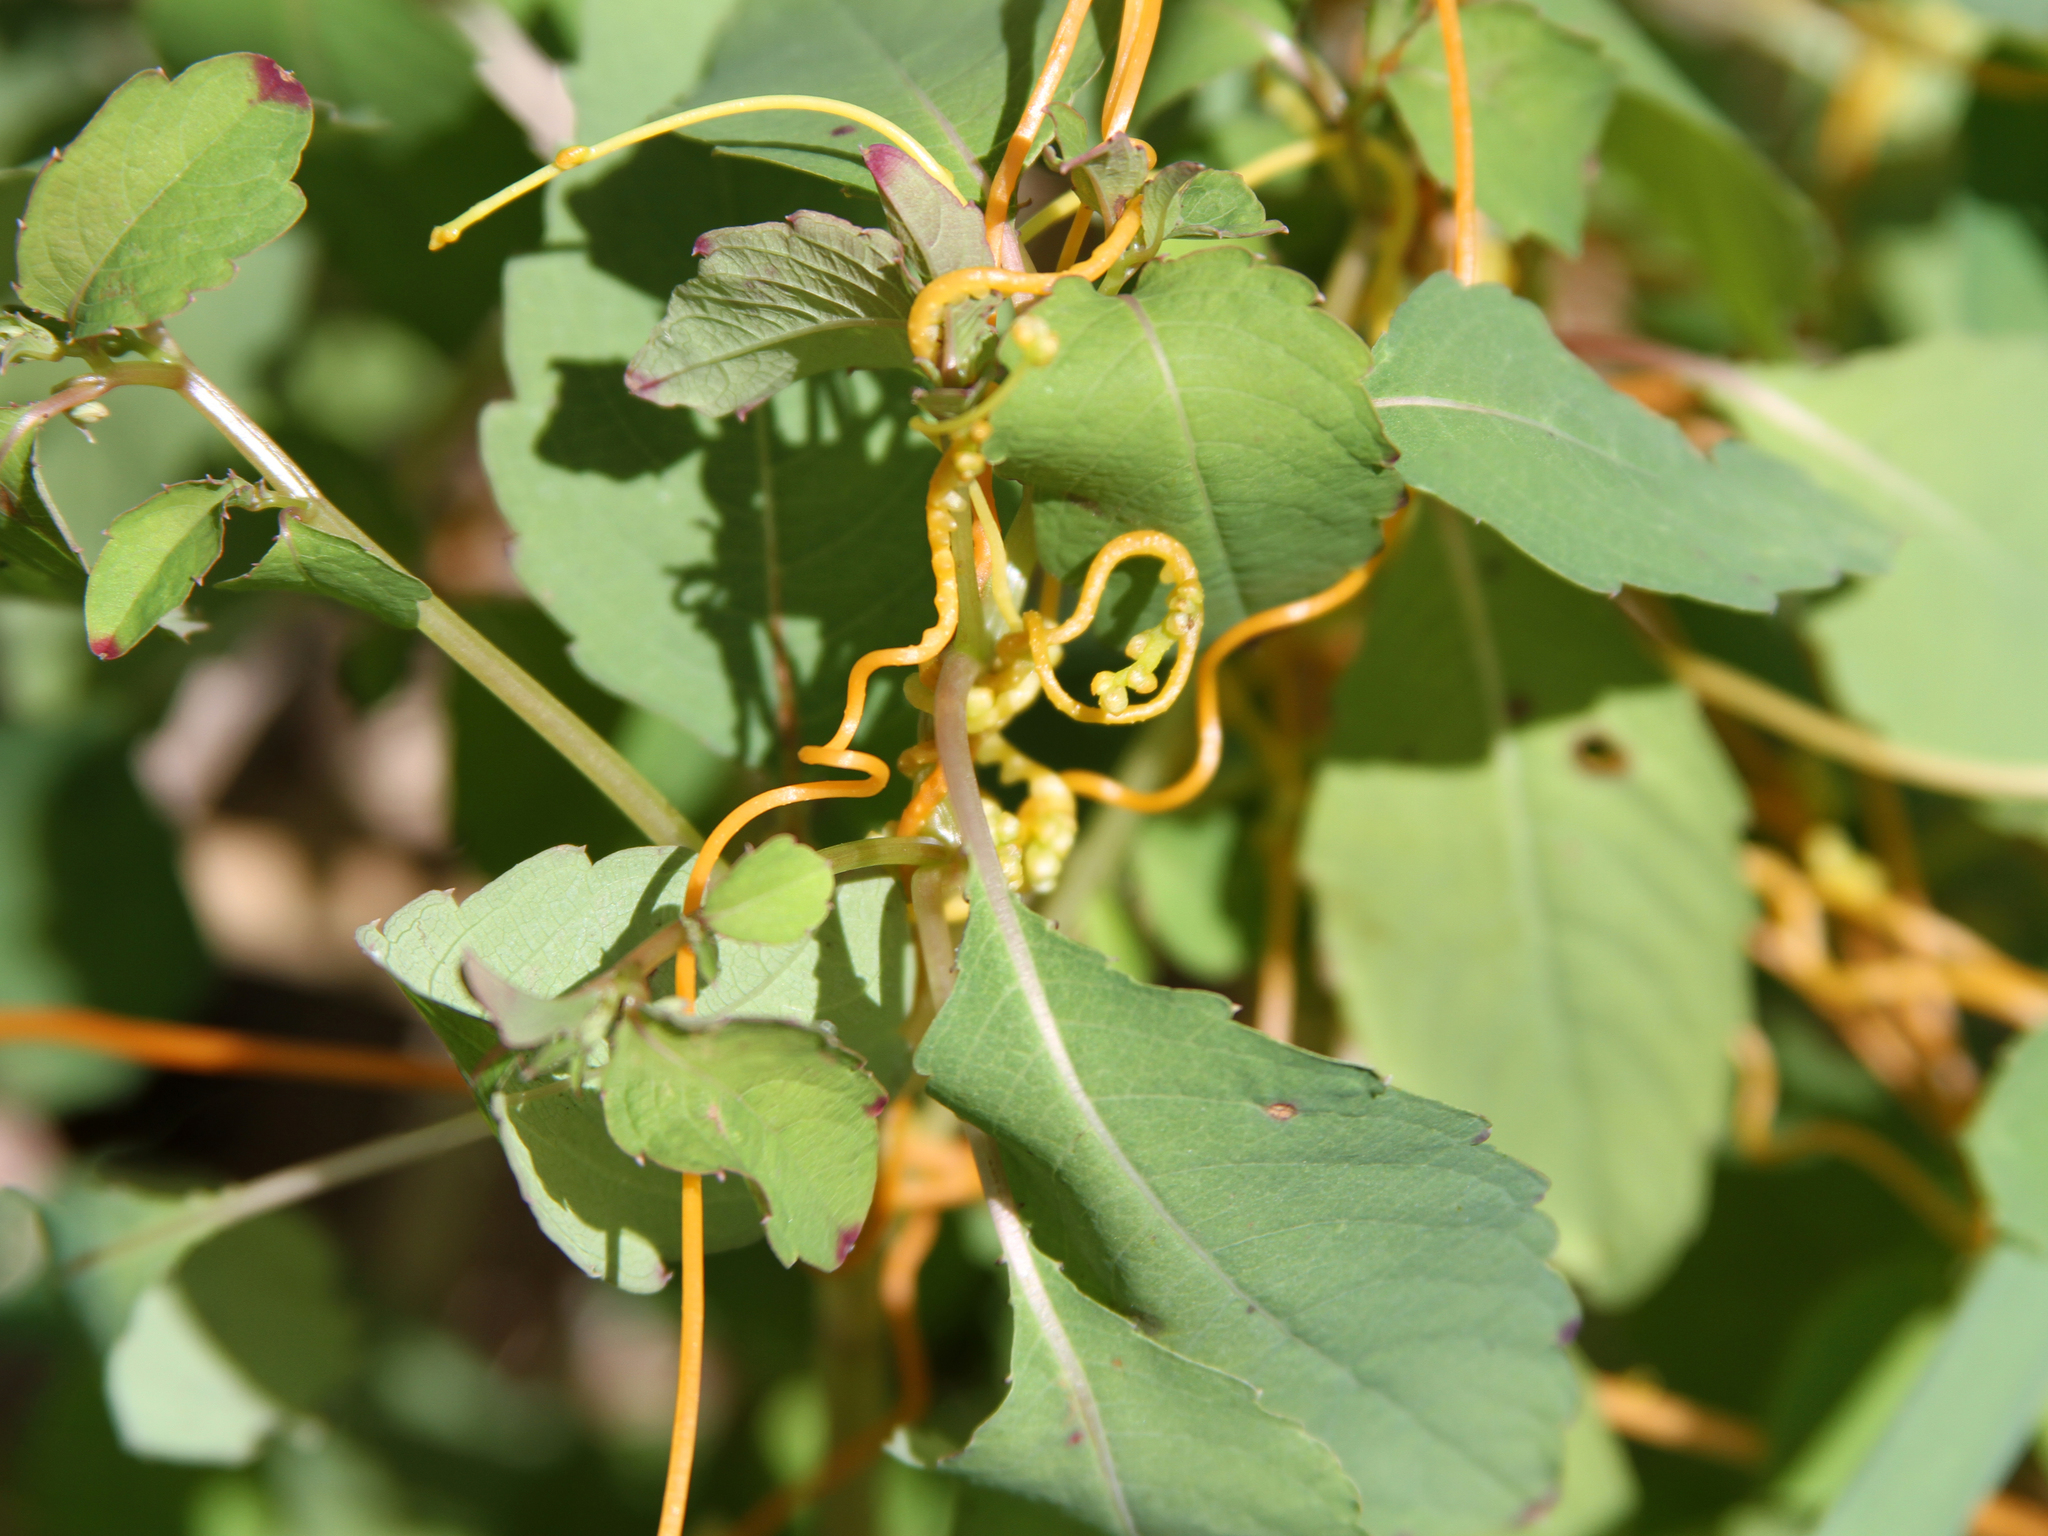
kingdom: Plantae
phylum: Tracheophyta
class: Magnoliopsida
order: Solanales
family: Convolvulaceae
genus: Cuscuta
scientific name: Cuscuta gronovii
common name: Common dodder
